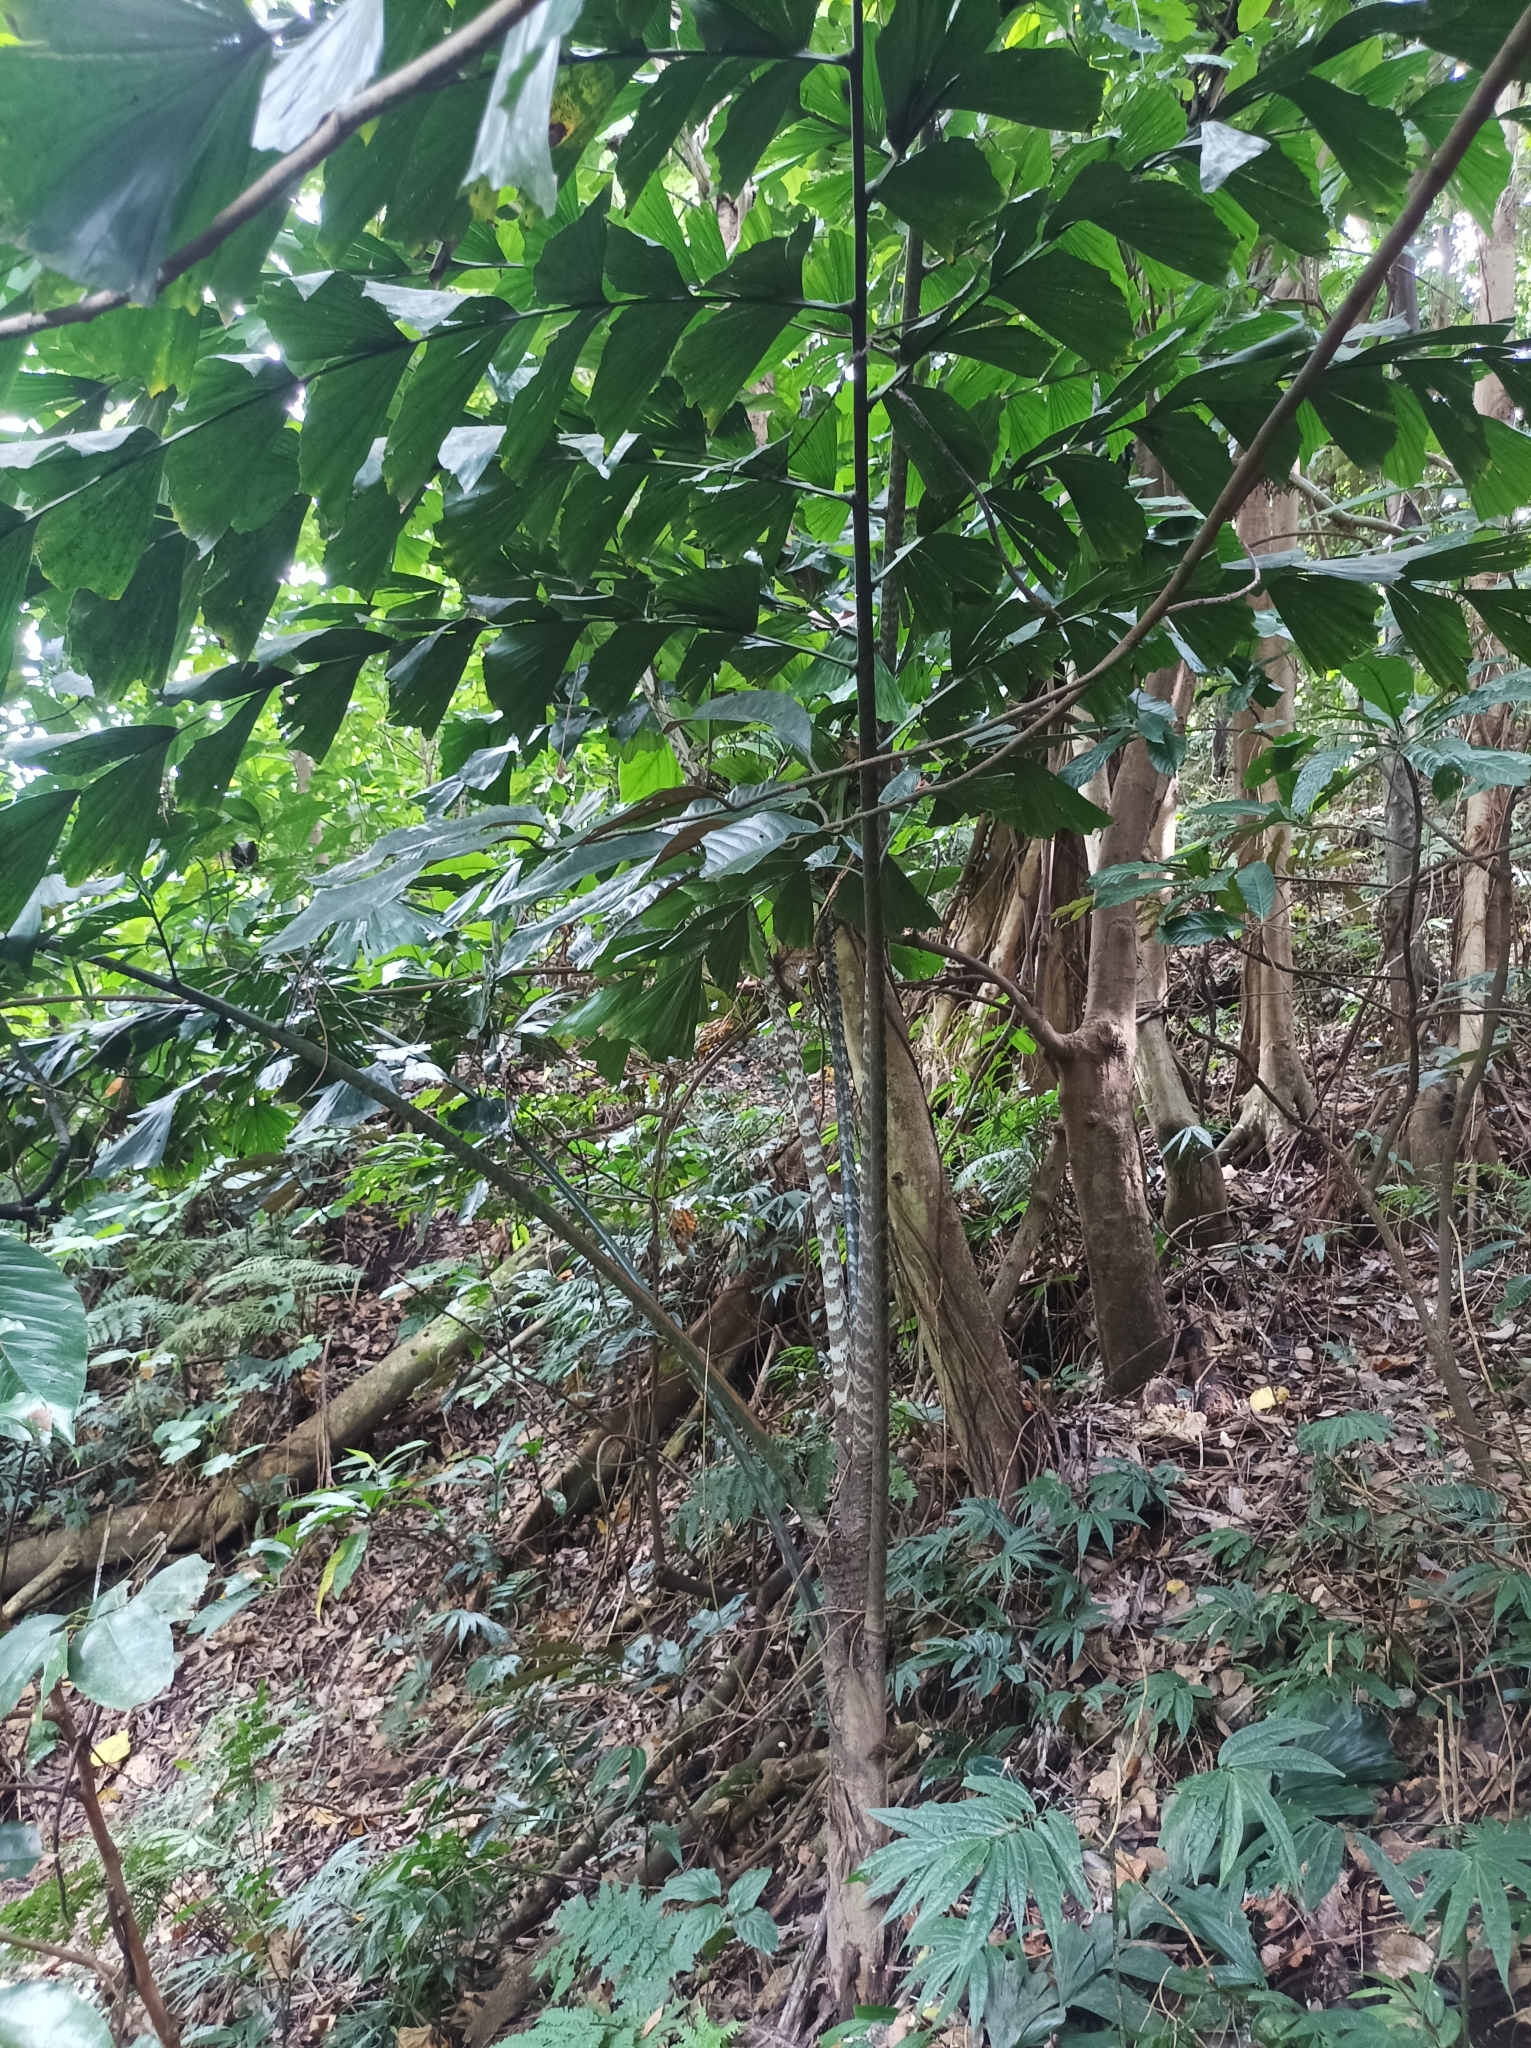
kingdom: Plantae
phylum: Tracheophyta
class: Liliopsida
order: Arecales
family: Arecaceae
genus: Caryota
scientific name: Caryota ophiopellis
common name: Snake palm
